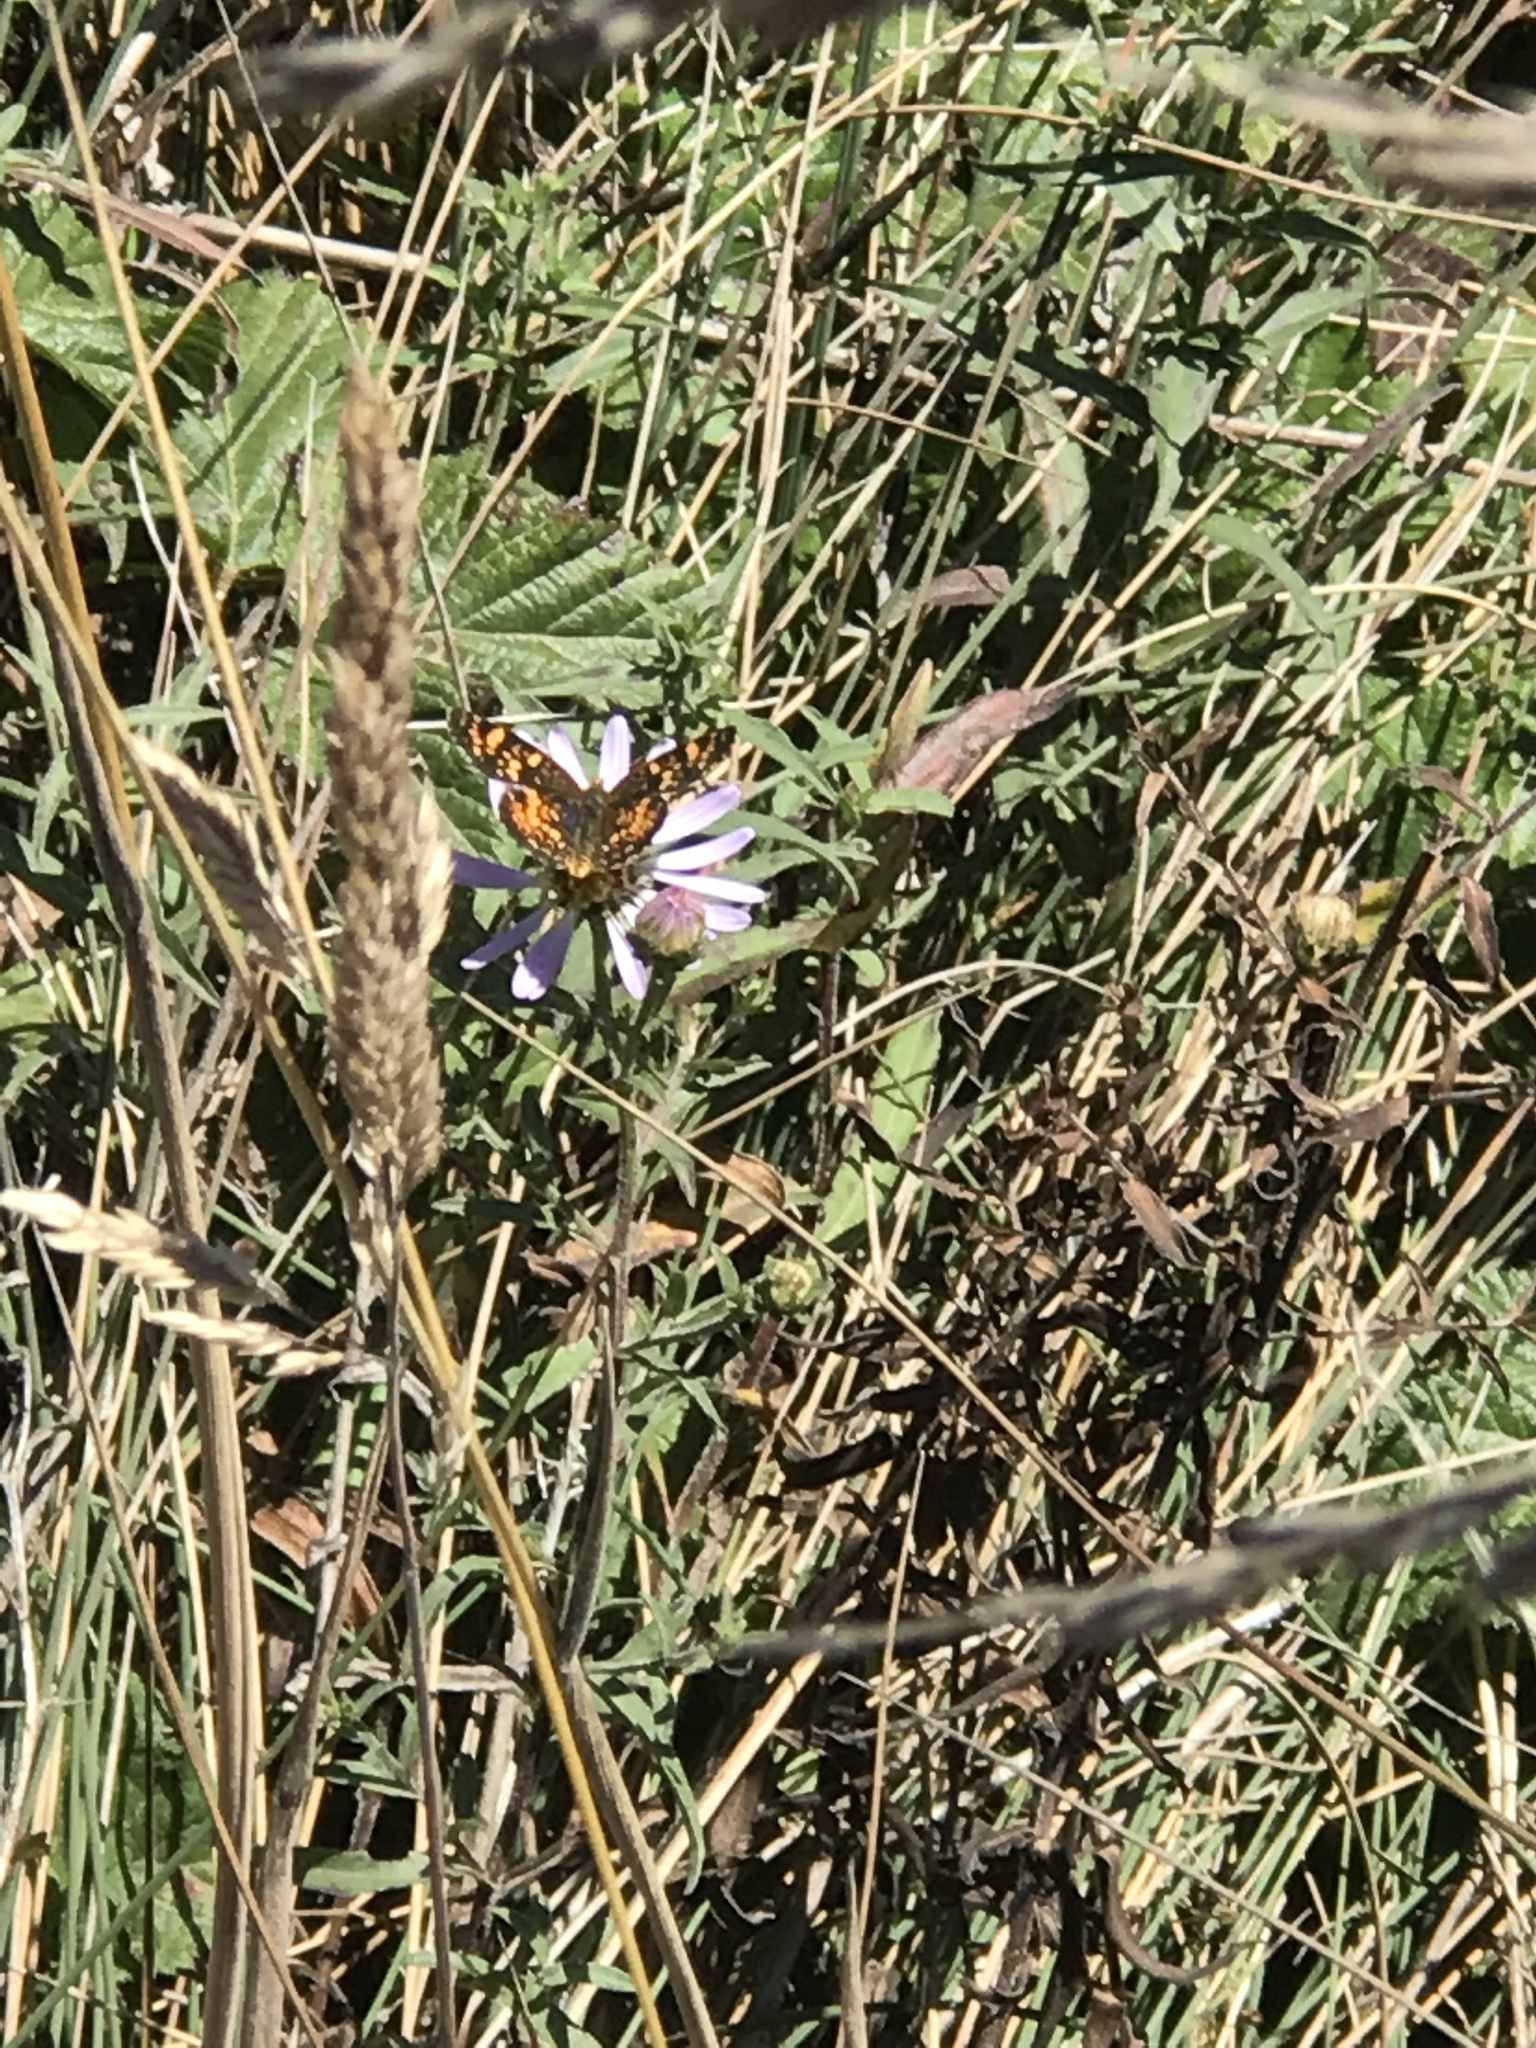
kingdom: Animalia
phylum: Arthropoda
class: Insecta
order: Lepidoptera
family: Nymphalidae
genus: Phyciodes
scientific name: Phyciodes tharos
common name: Pearl crescent
